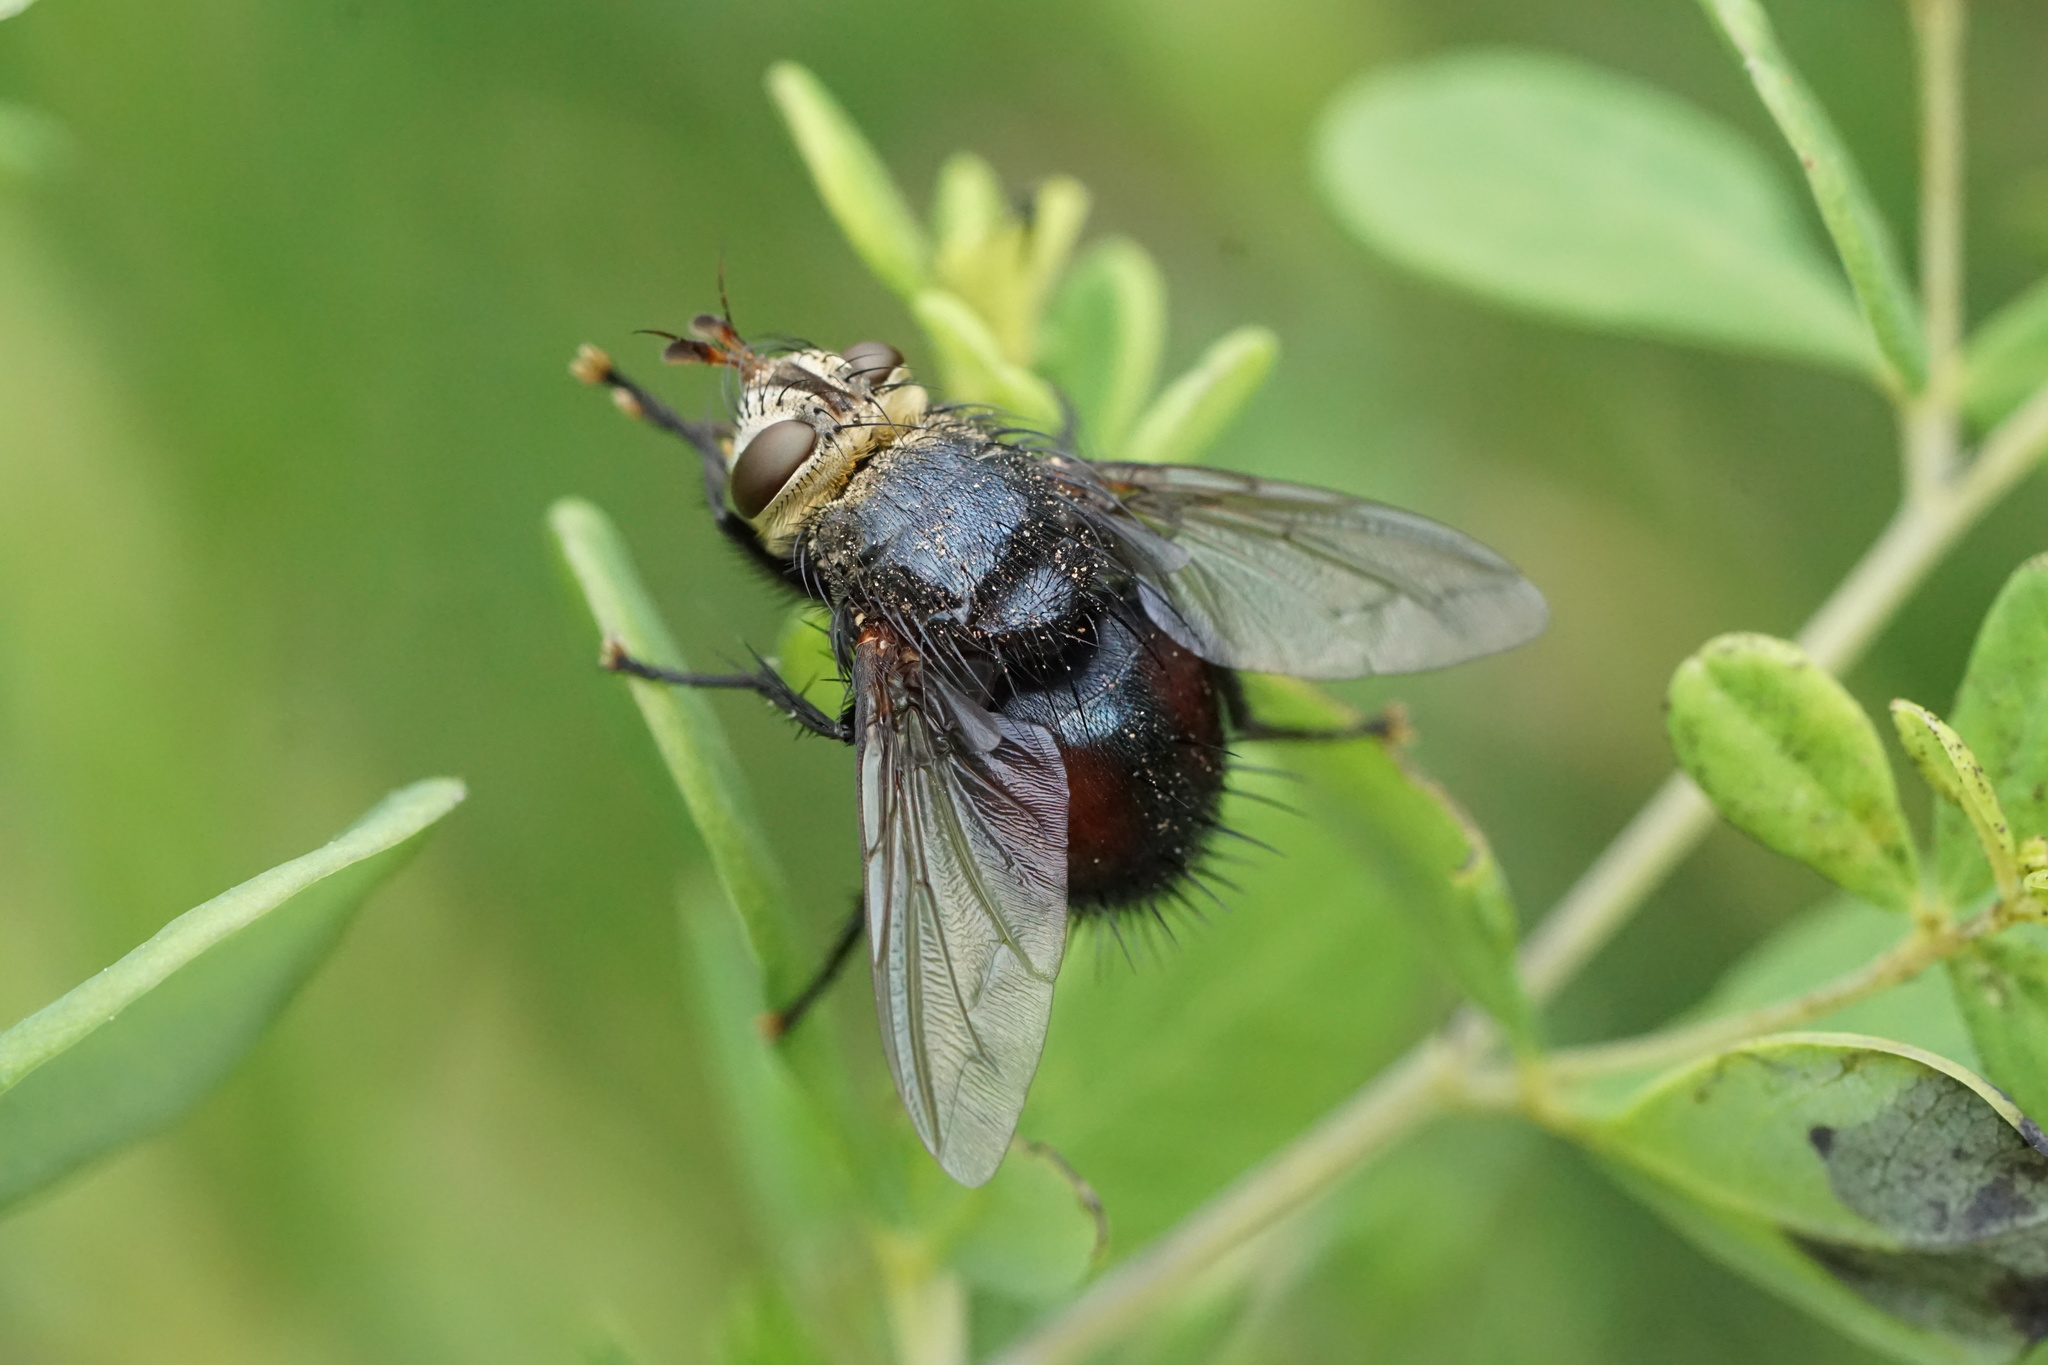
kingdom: Animalia
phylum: Arthropoda
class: Insecta
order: Diptera
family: Tachinidae
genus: Archytas
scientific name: Archytas metallicus
